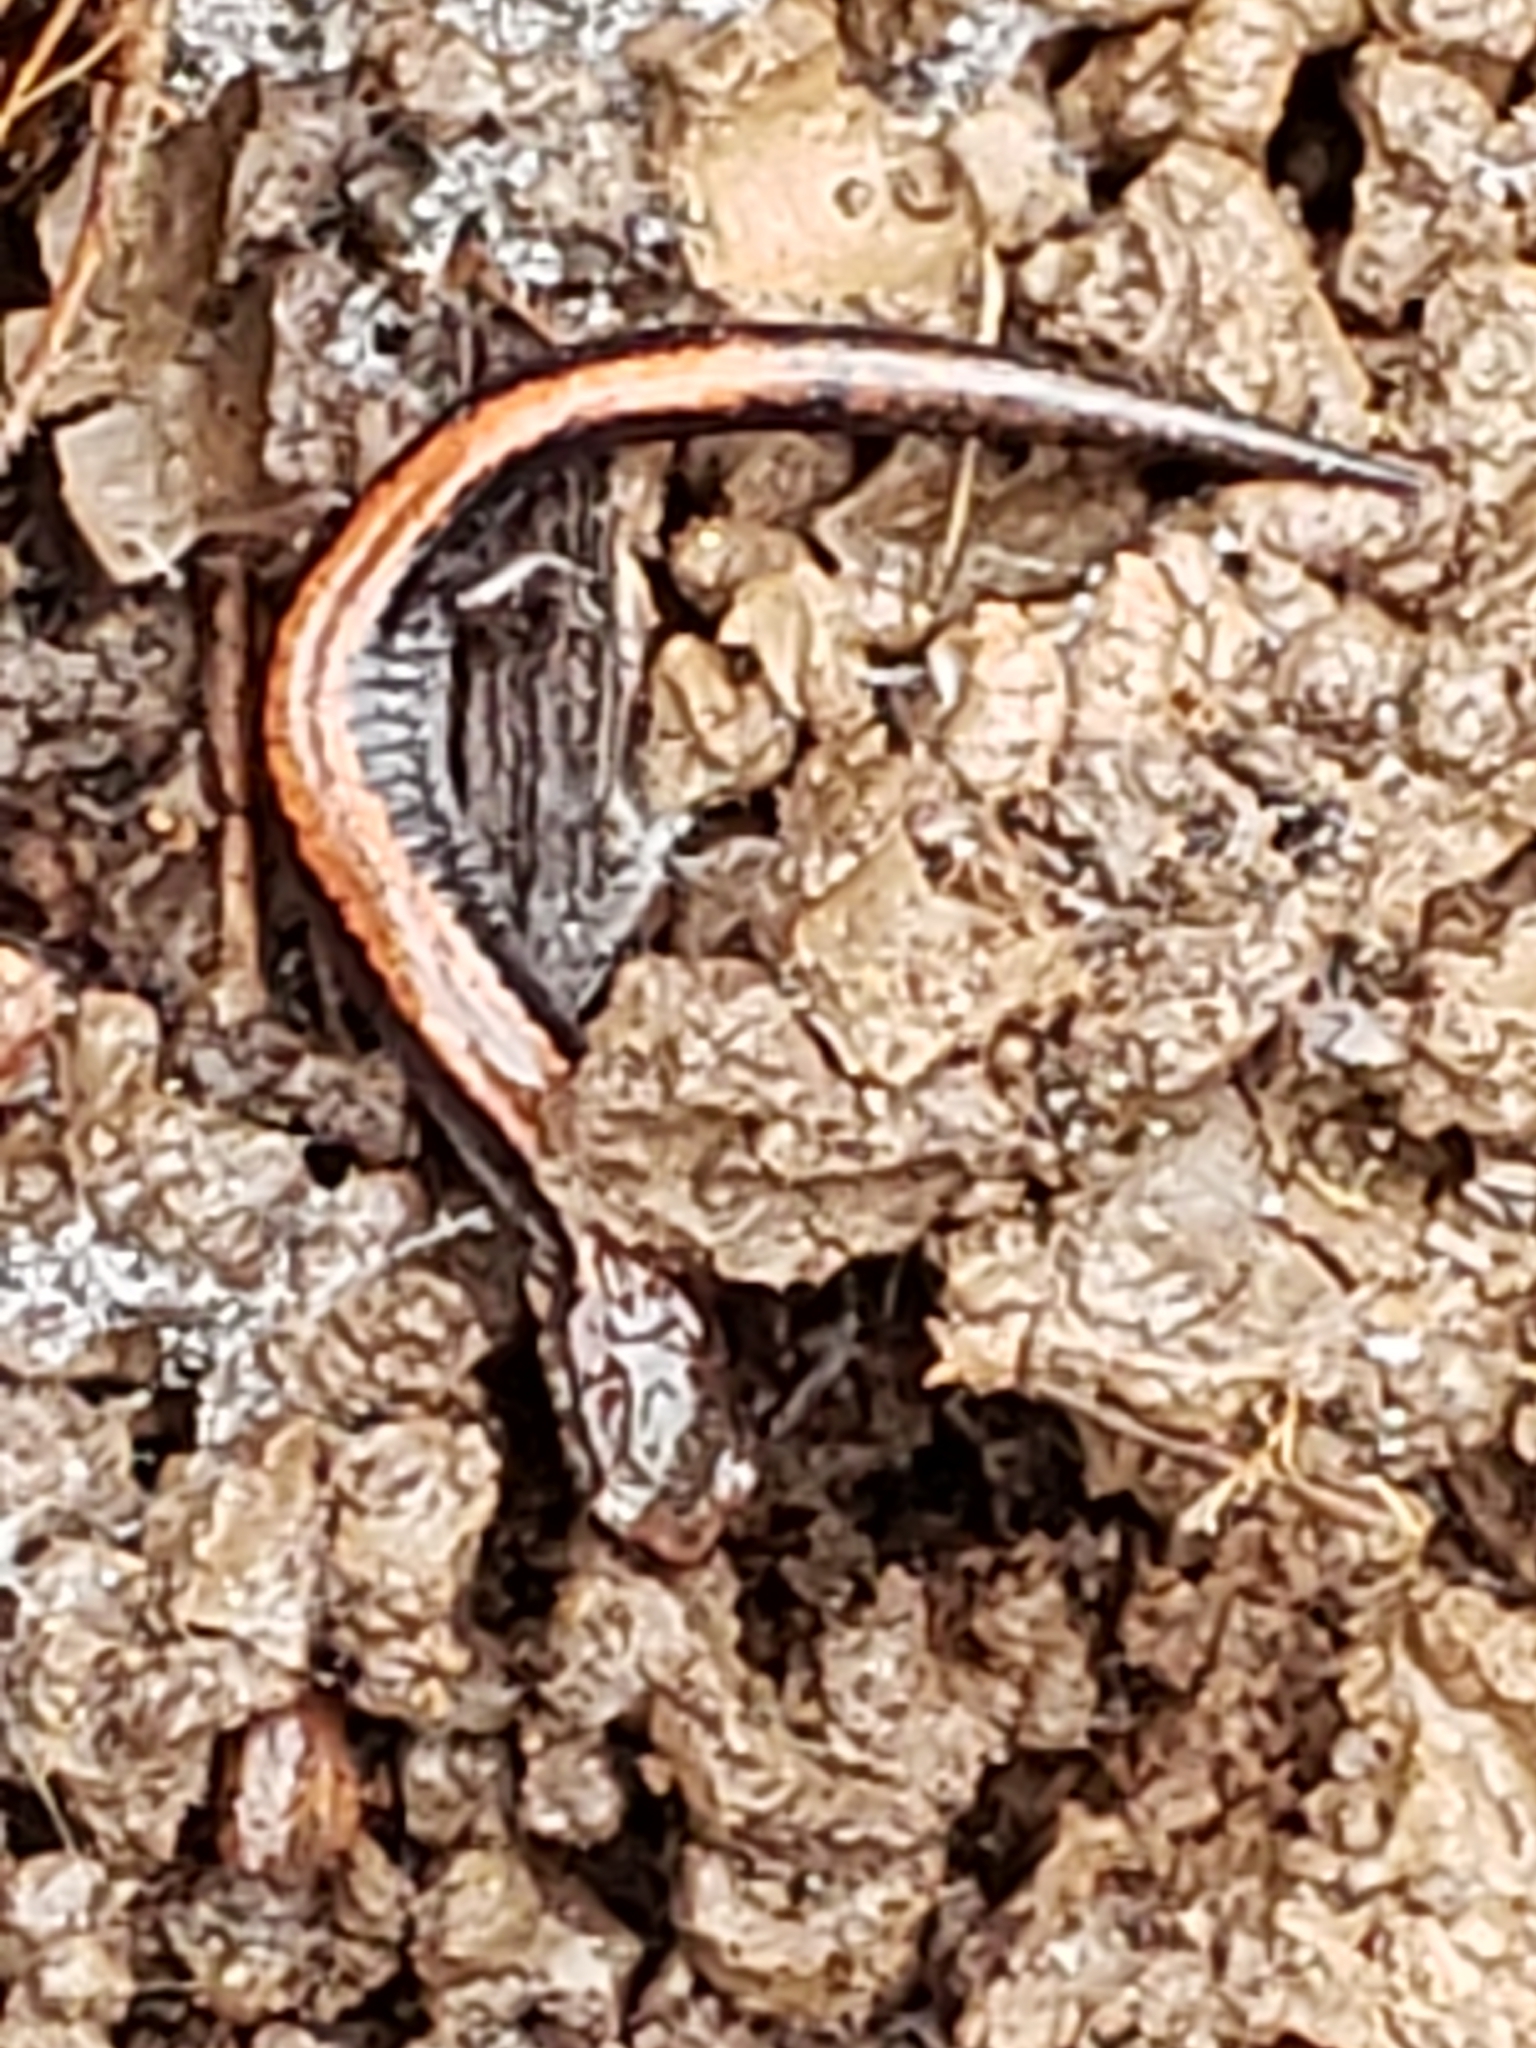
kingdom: Animalia
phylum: Chordata
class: Amphibia
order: Caudata
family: Plethodontidae
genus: Plethodon
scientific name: Plethodon cinereus
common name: Redback salamander
